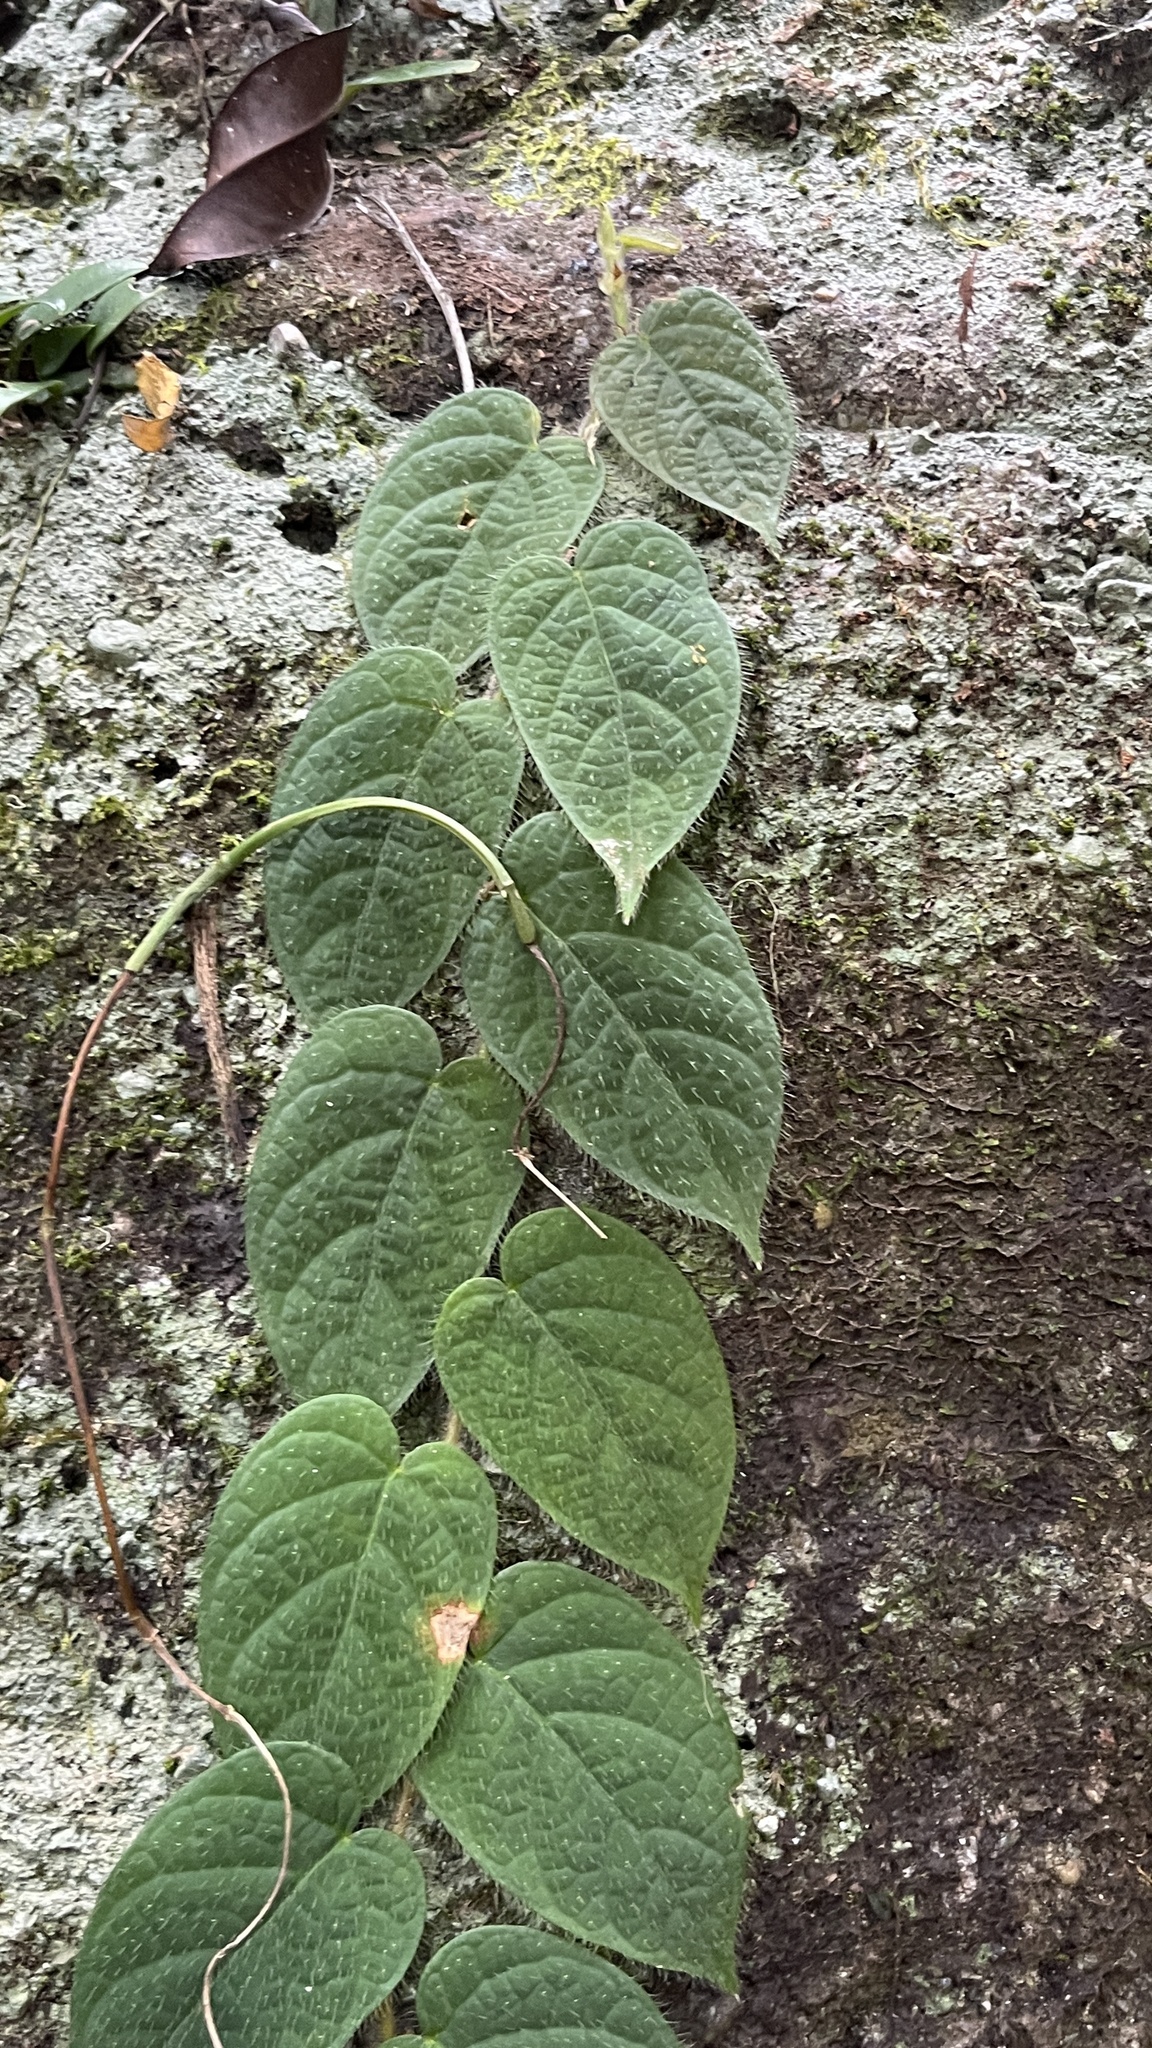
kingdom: Plantae
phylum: Tracheophyta
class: Magnoliopsida
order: Rosales
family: Moraceae
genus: Ficus
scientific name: Ficus villosa
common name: Villous fig
